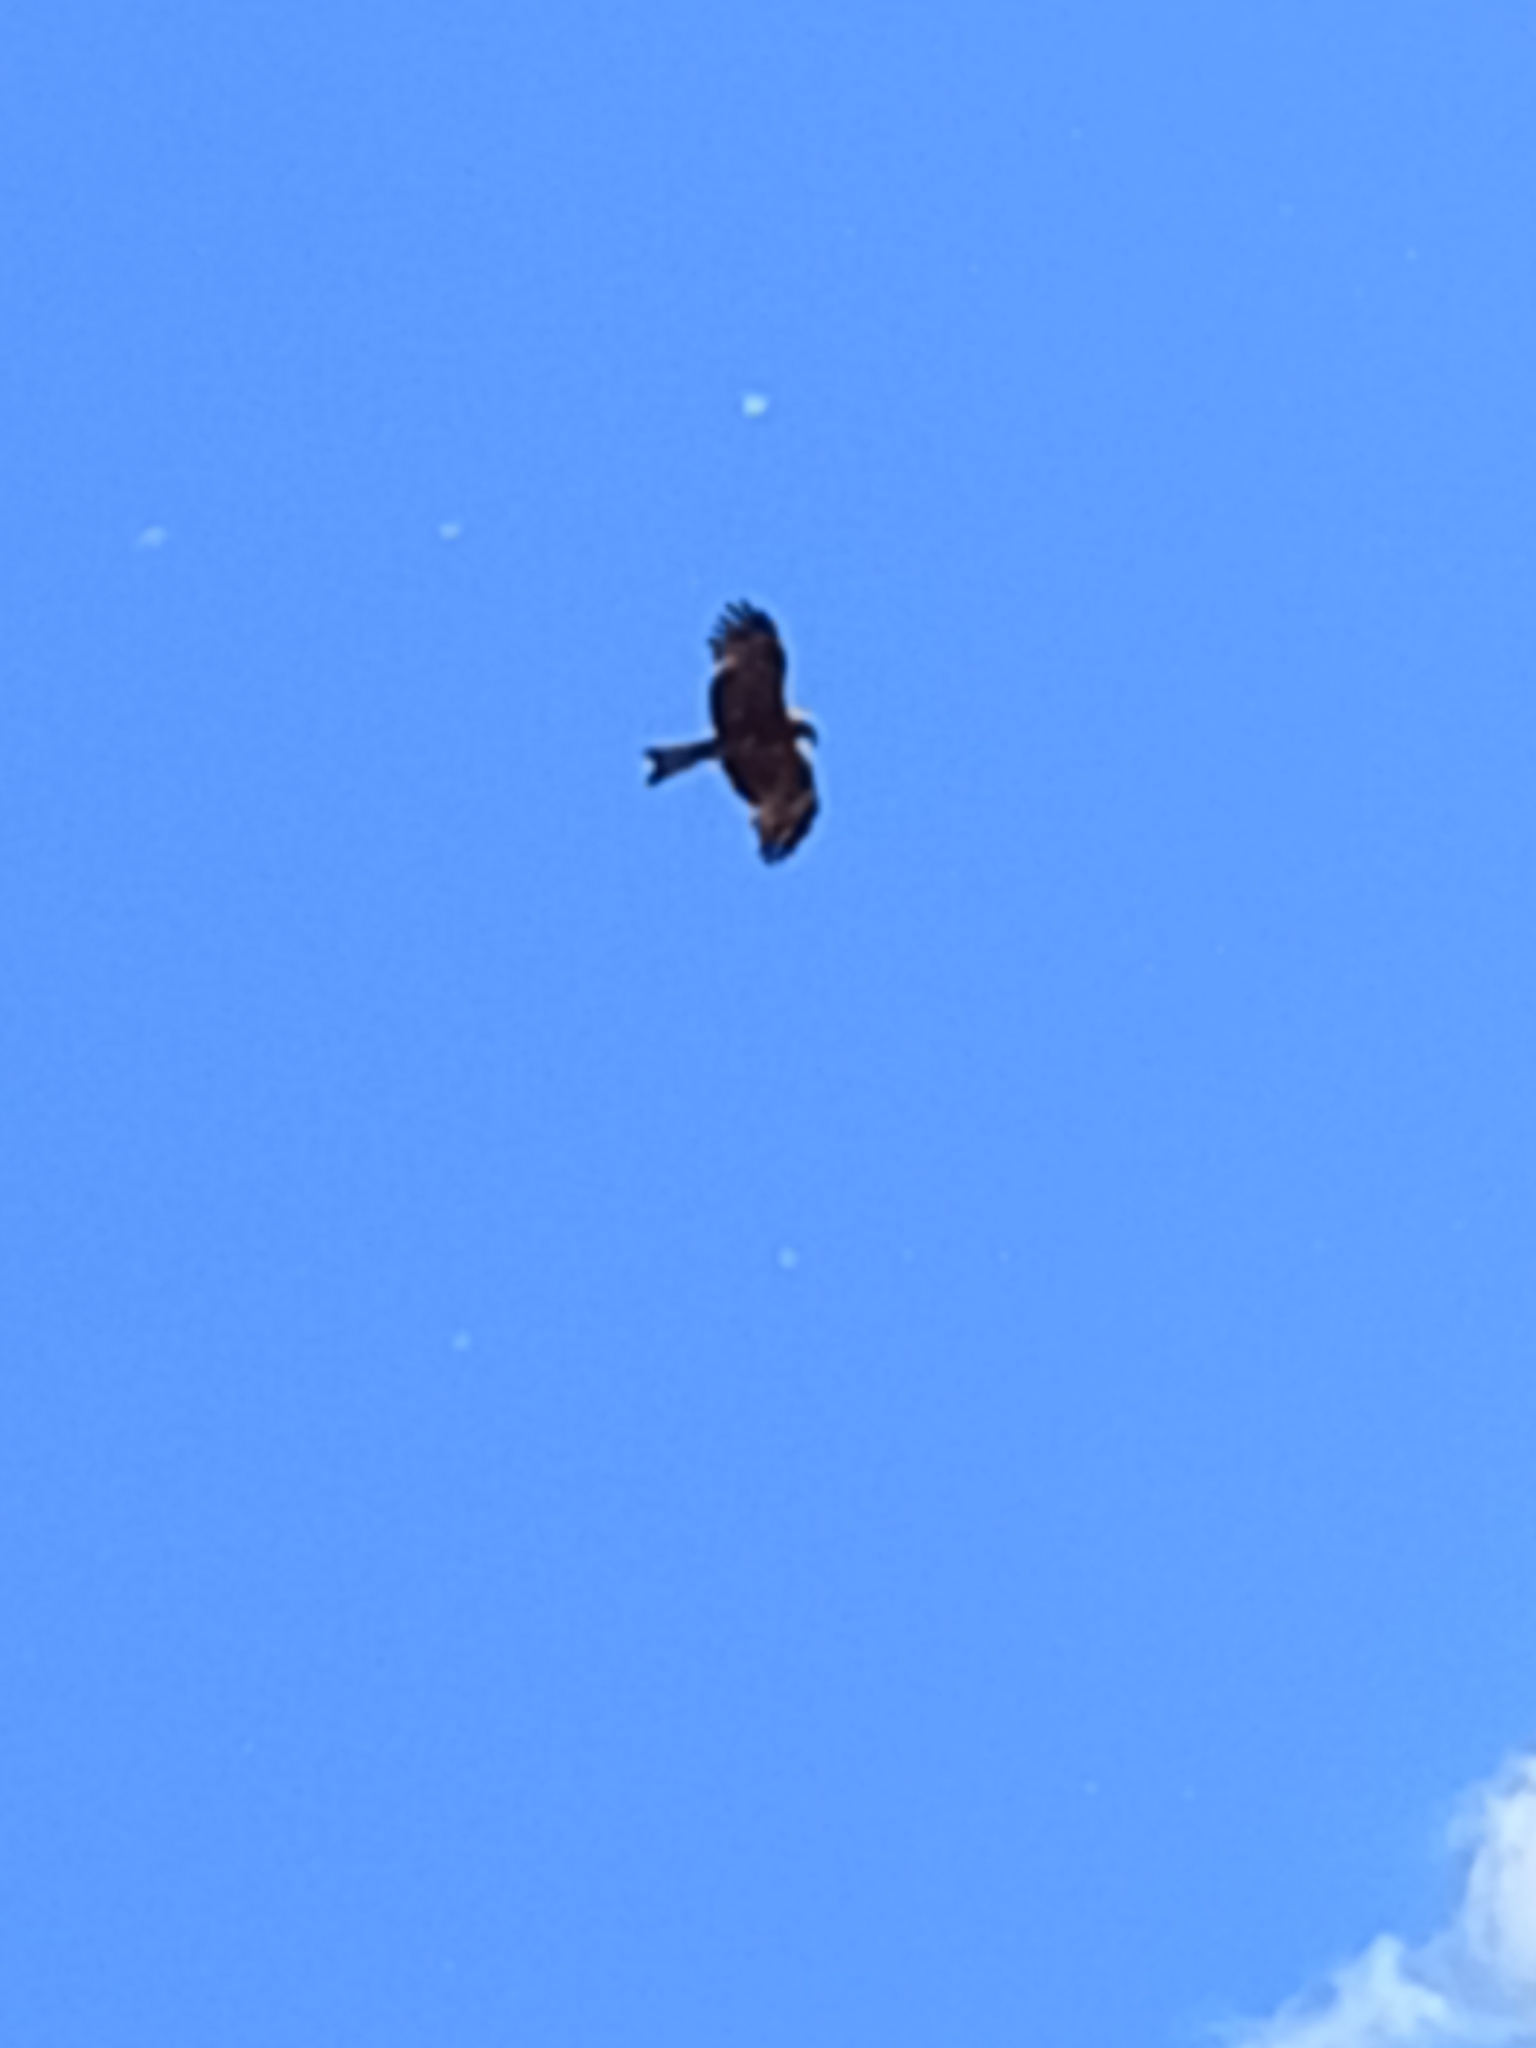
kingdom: Animalia
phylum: Chordata
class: Aves
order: Accipitriformes
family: Accipitridae
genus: Milvus
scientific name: Milvus migrans
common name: Black kite
